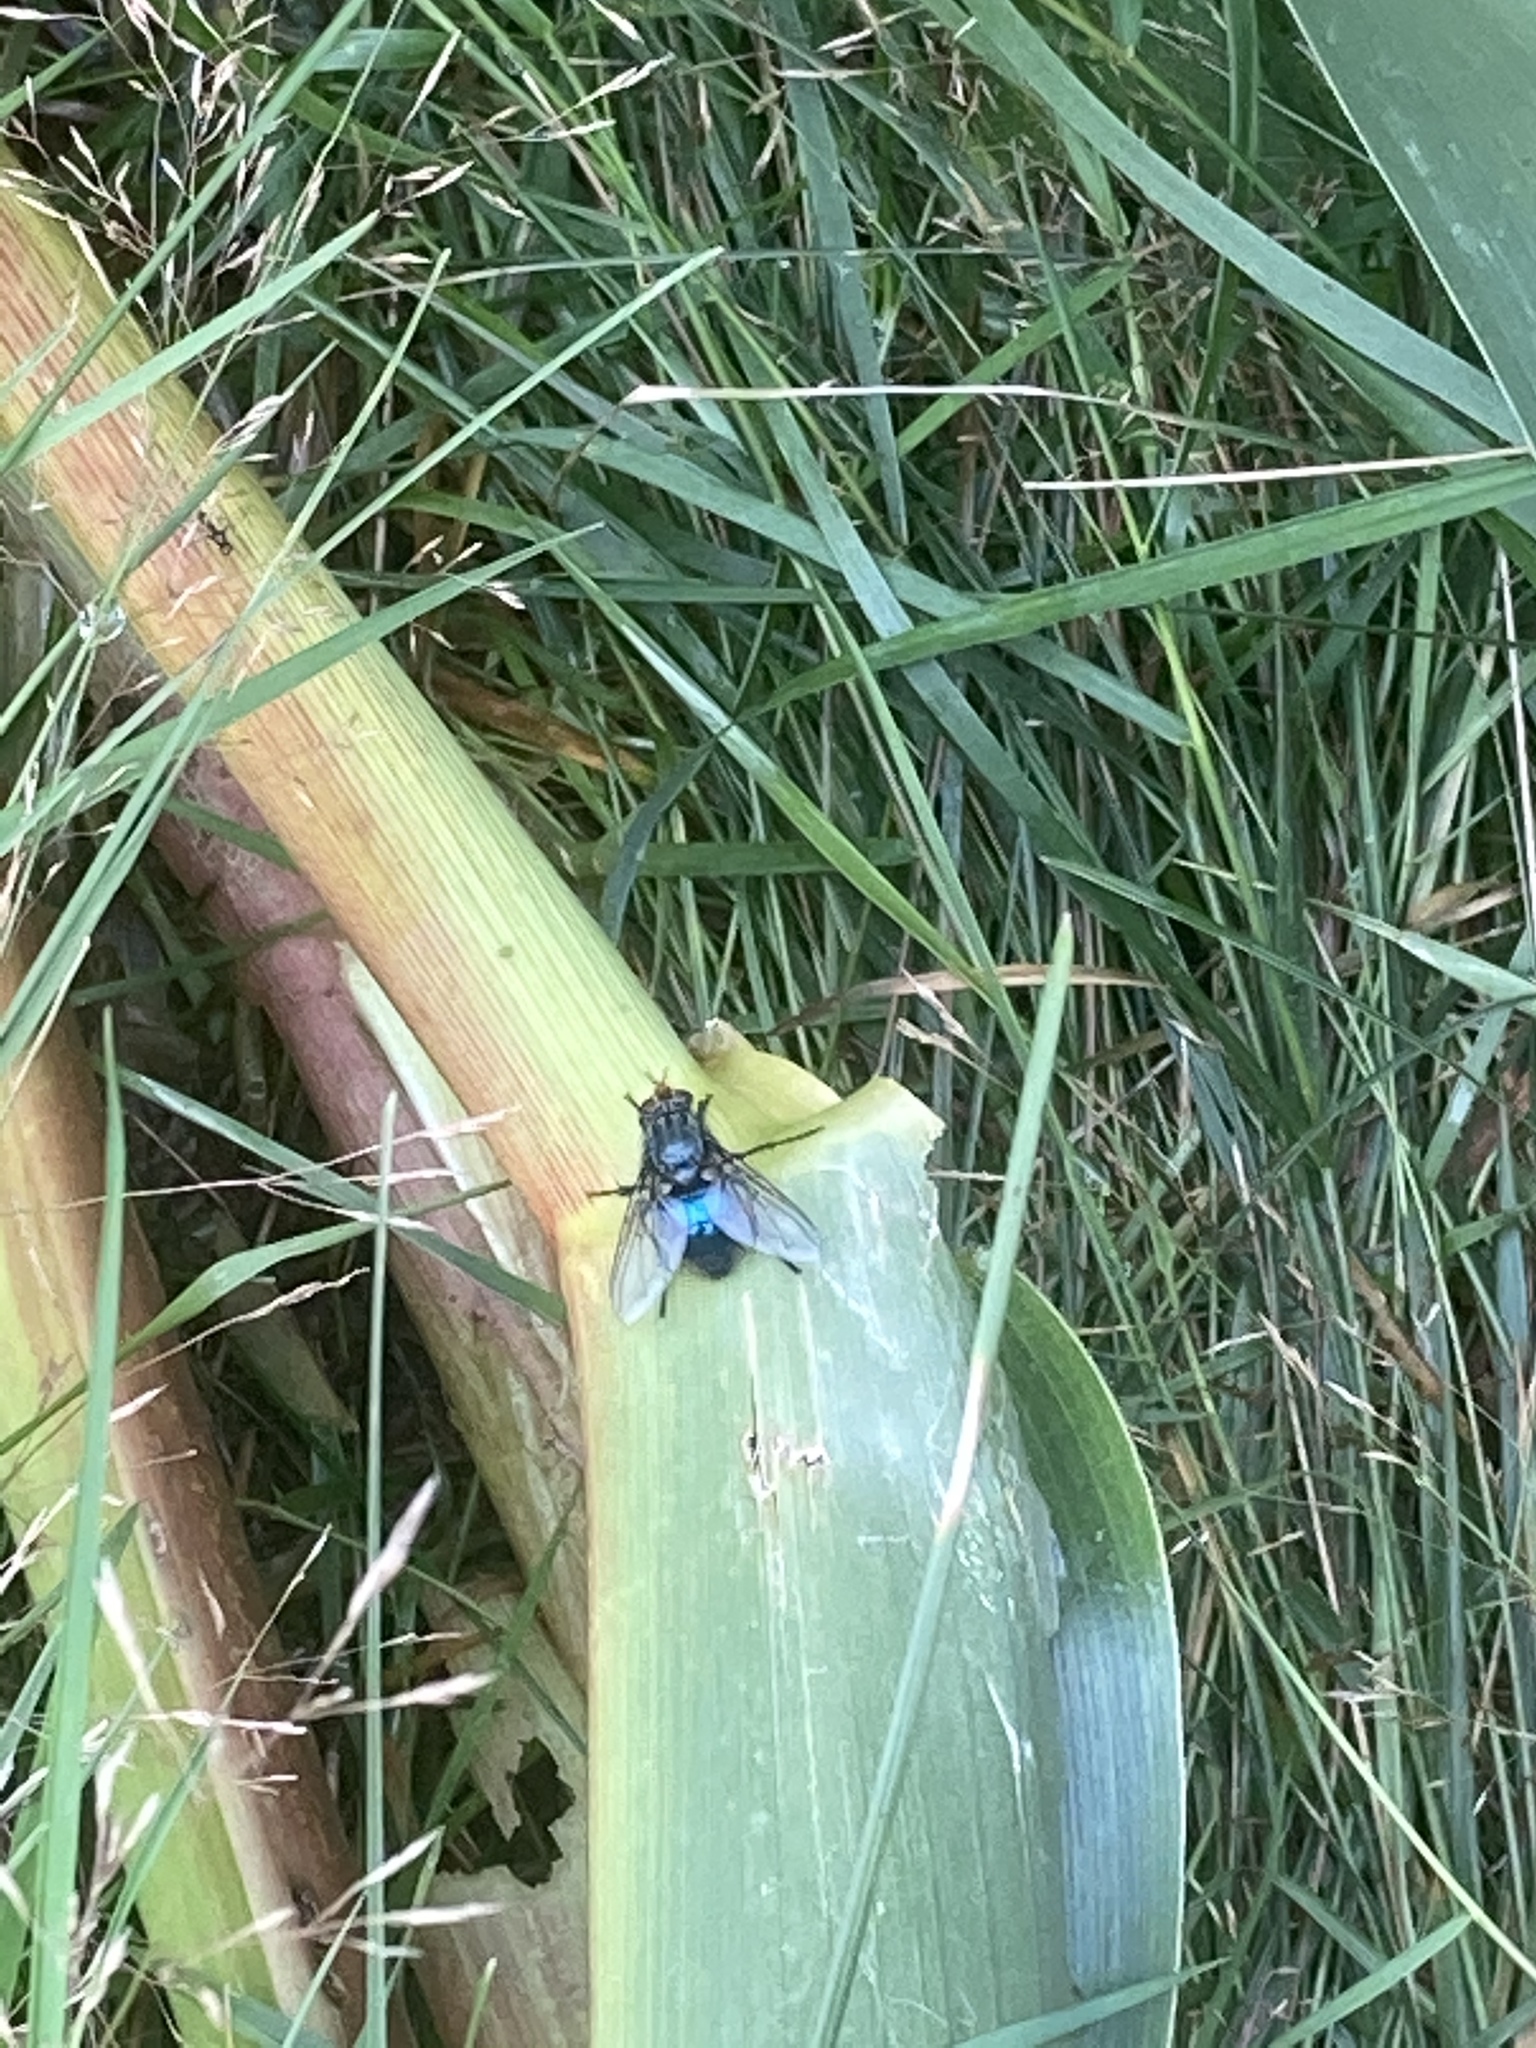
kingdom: Animalia
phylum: Arthropoda
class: Insecta
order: Diptera
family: Calliphoridae
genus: Cynomya
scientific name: Cynomya mortuorum
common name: Bluebottle blow fly
